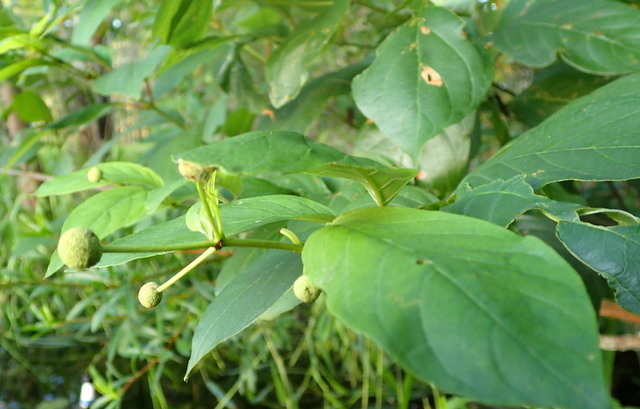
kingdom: Plantae
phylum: Tracheophyta
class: Magnoliopsida
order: Gentianales
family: Rubiaceae
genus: Cephalanthus
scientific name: Cephalanthus occidentalis
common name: Button-willow
